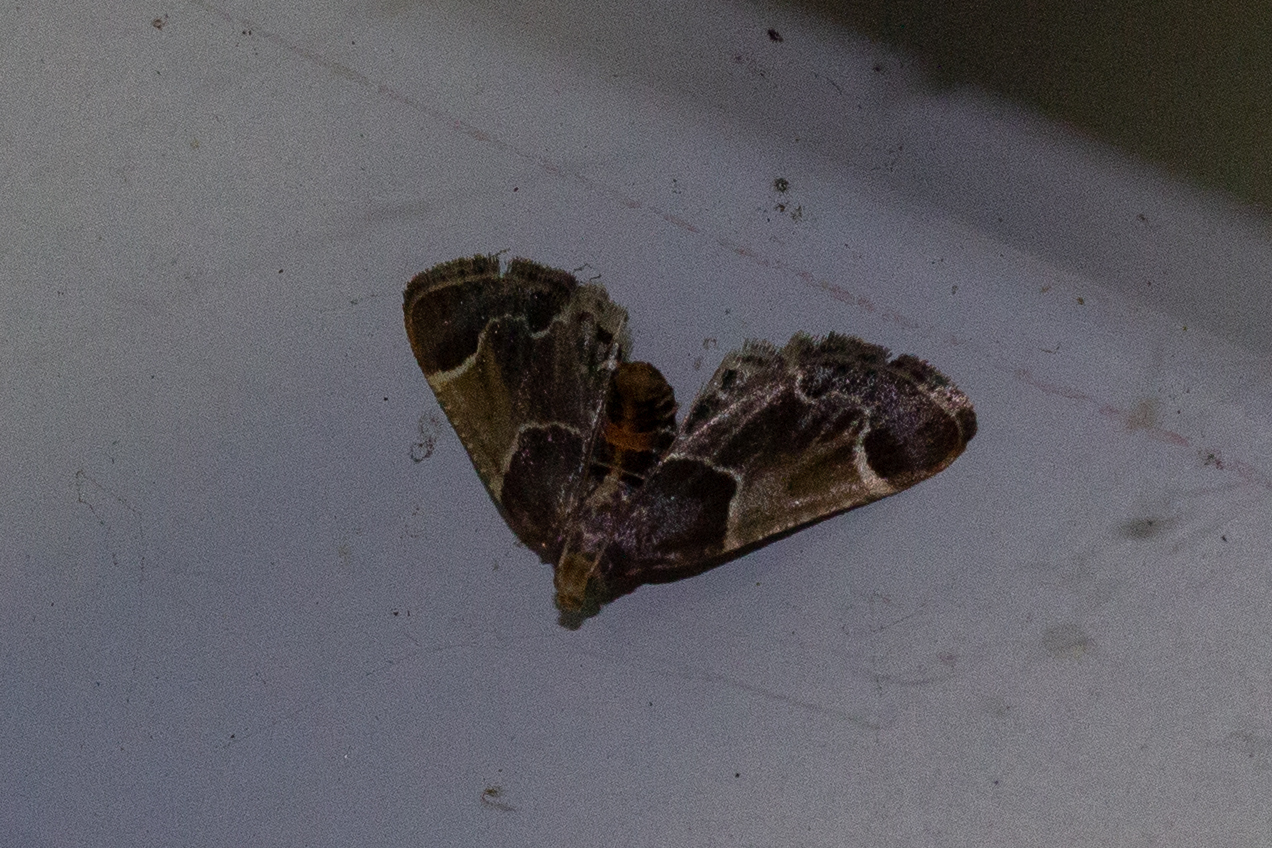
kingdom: Animalia
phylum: Arthropoda
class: Insecta
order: Lepidoptera
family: Pyralidae
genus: Pyralis
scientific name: Pyralis farinalis
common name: Meal moth
